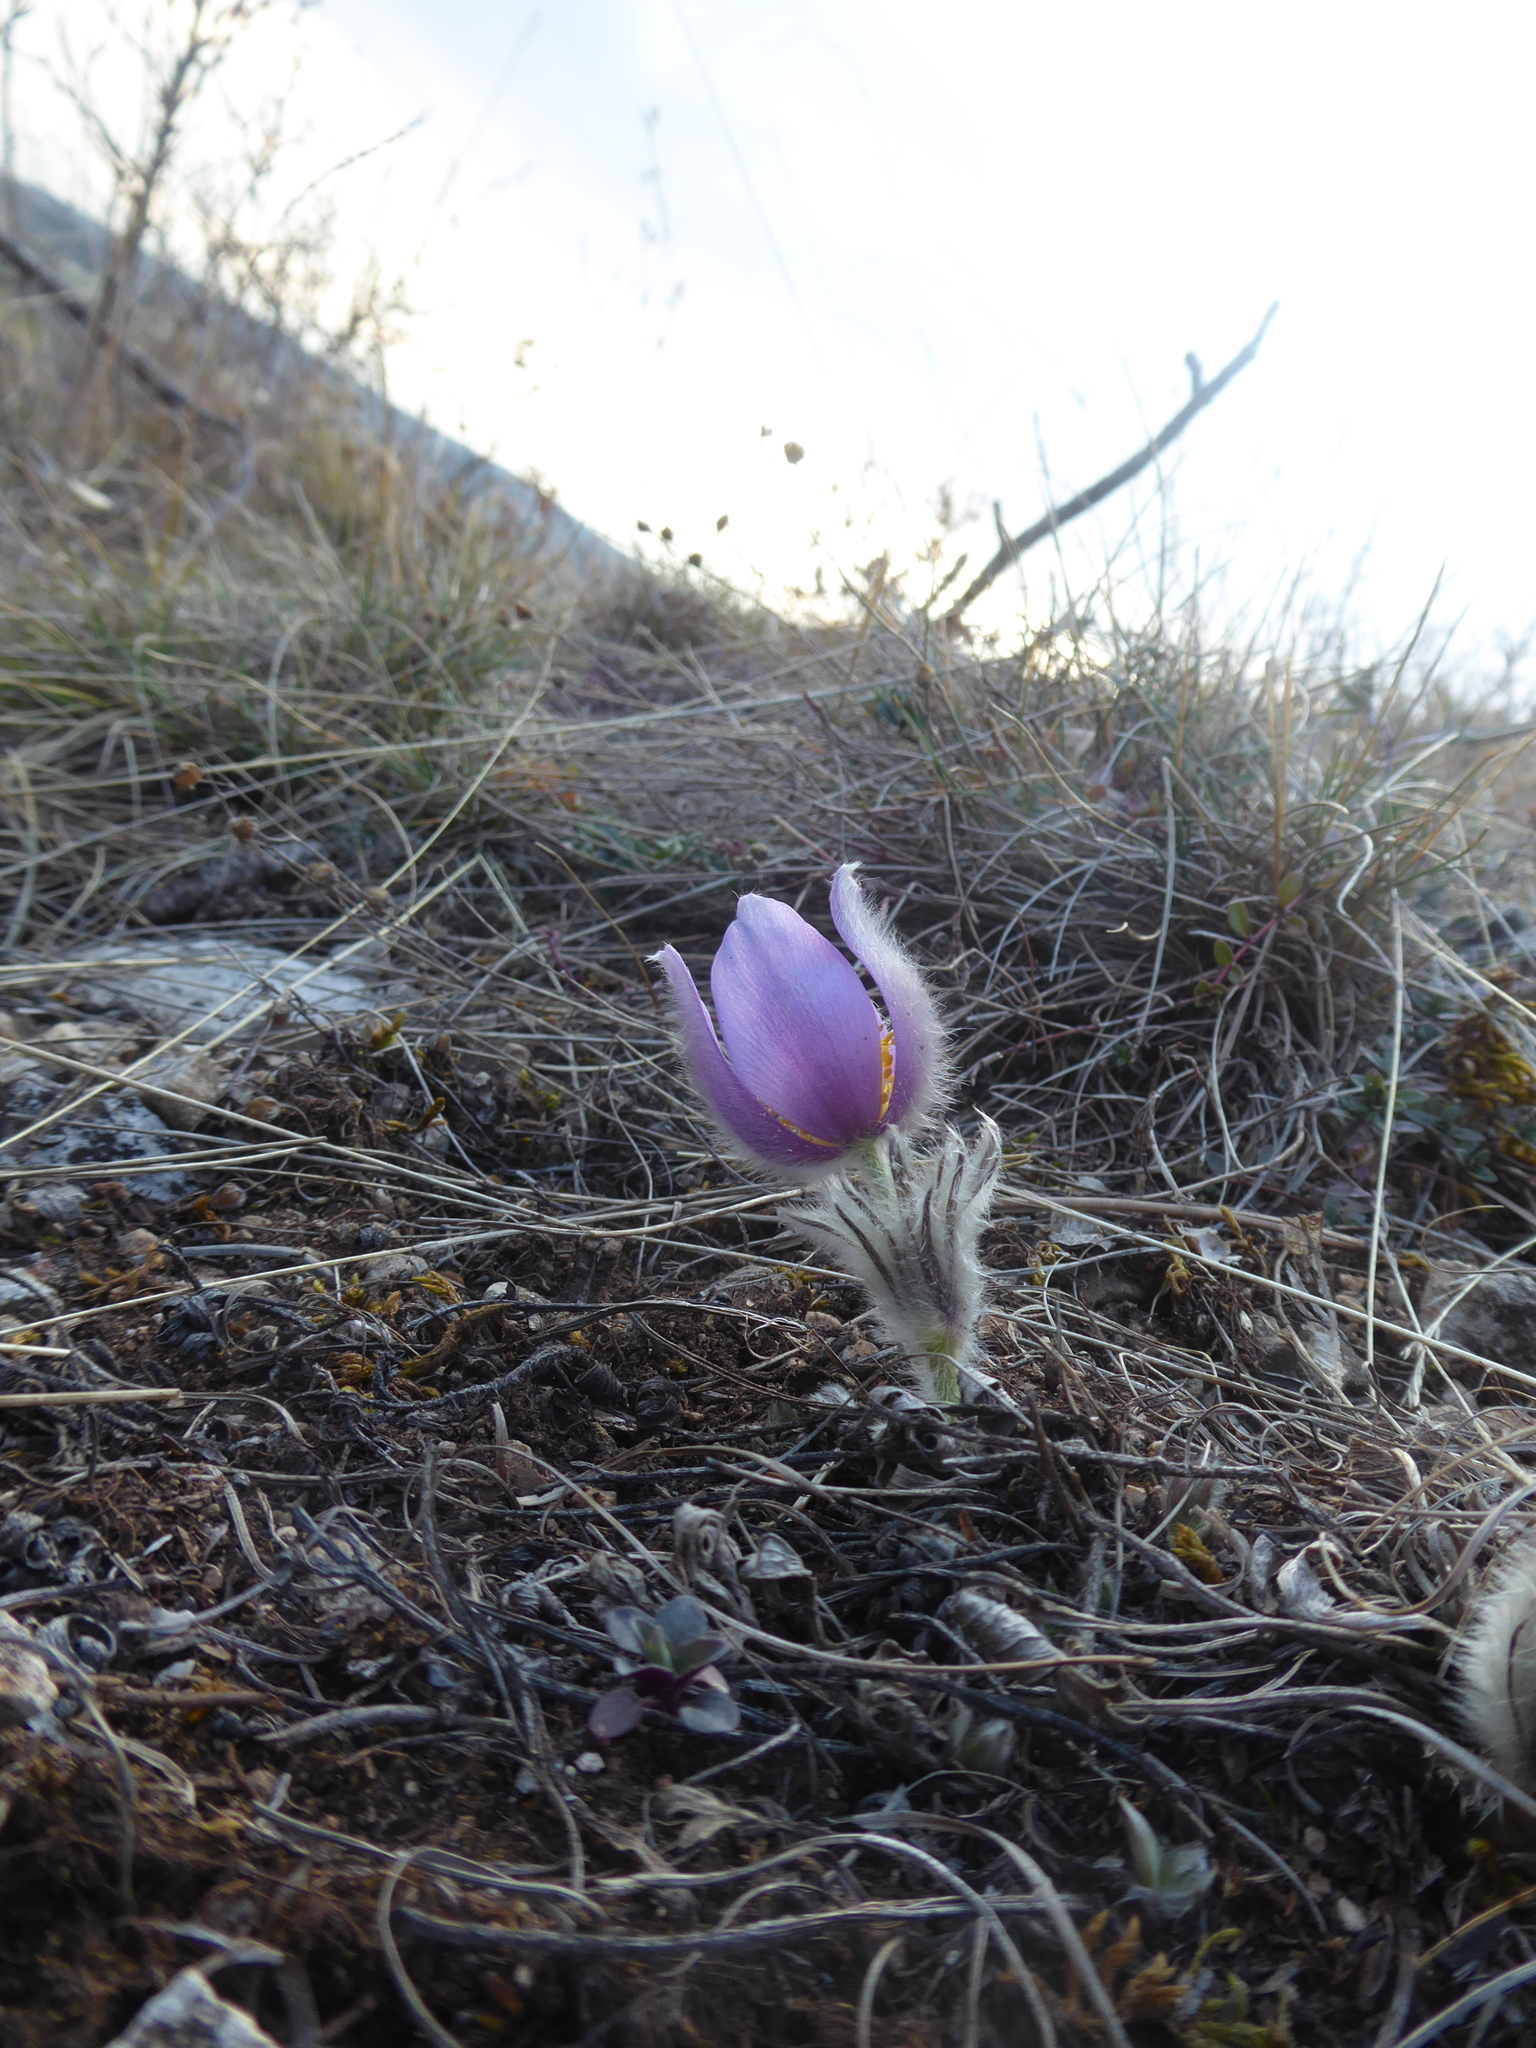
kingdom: Plantae
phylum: Tracheophyta
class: Magnoliopsida
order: Ranunculales
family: Ranunculaceae
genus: Pulsatilla
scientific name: Pulsatilla grandis
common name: Greater pasque flower
